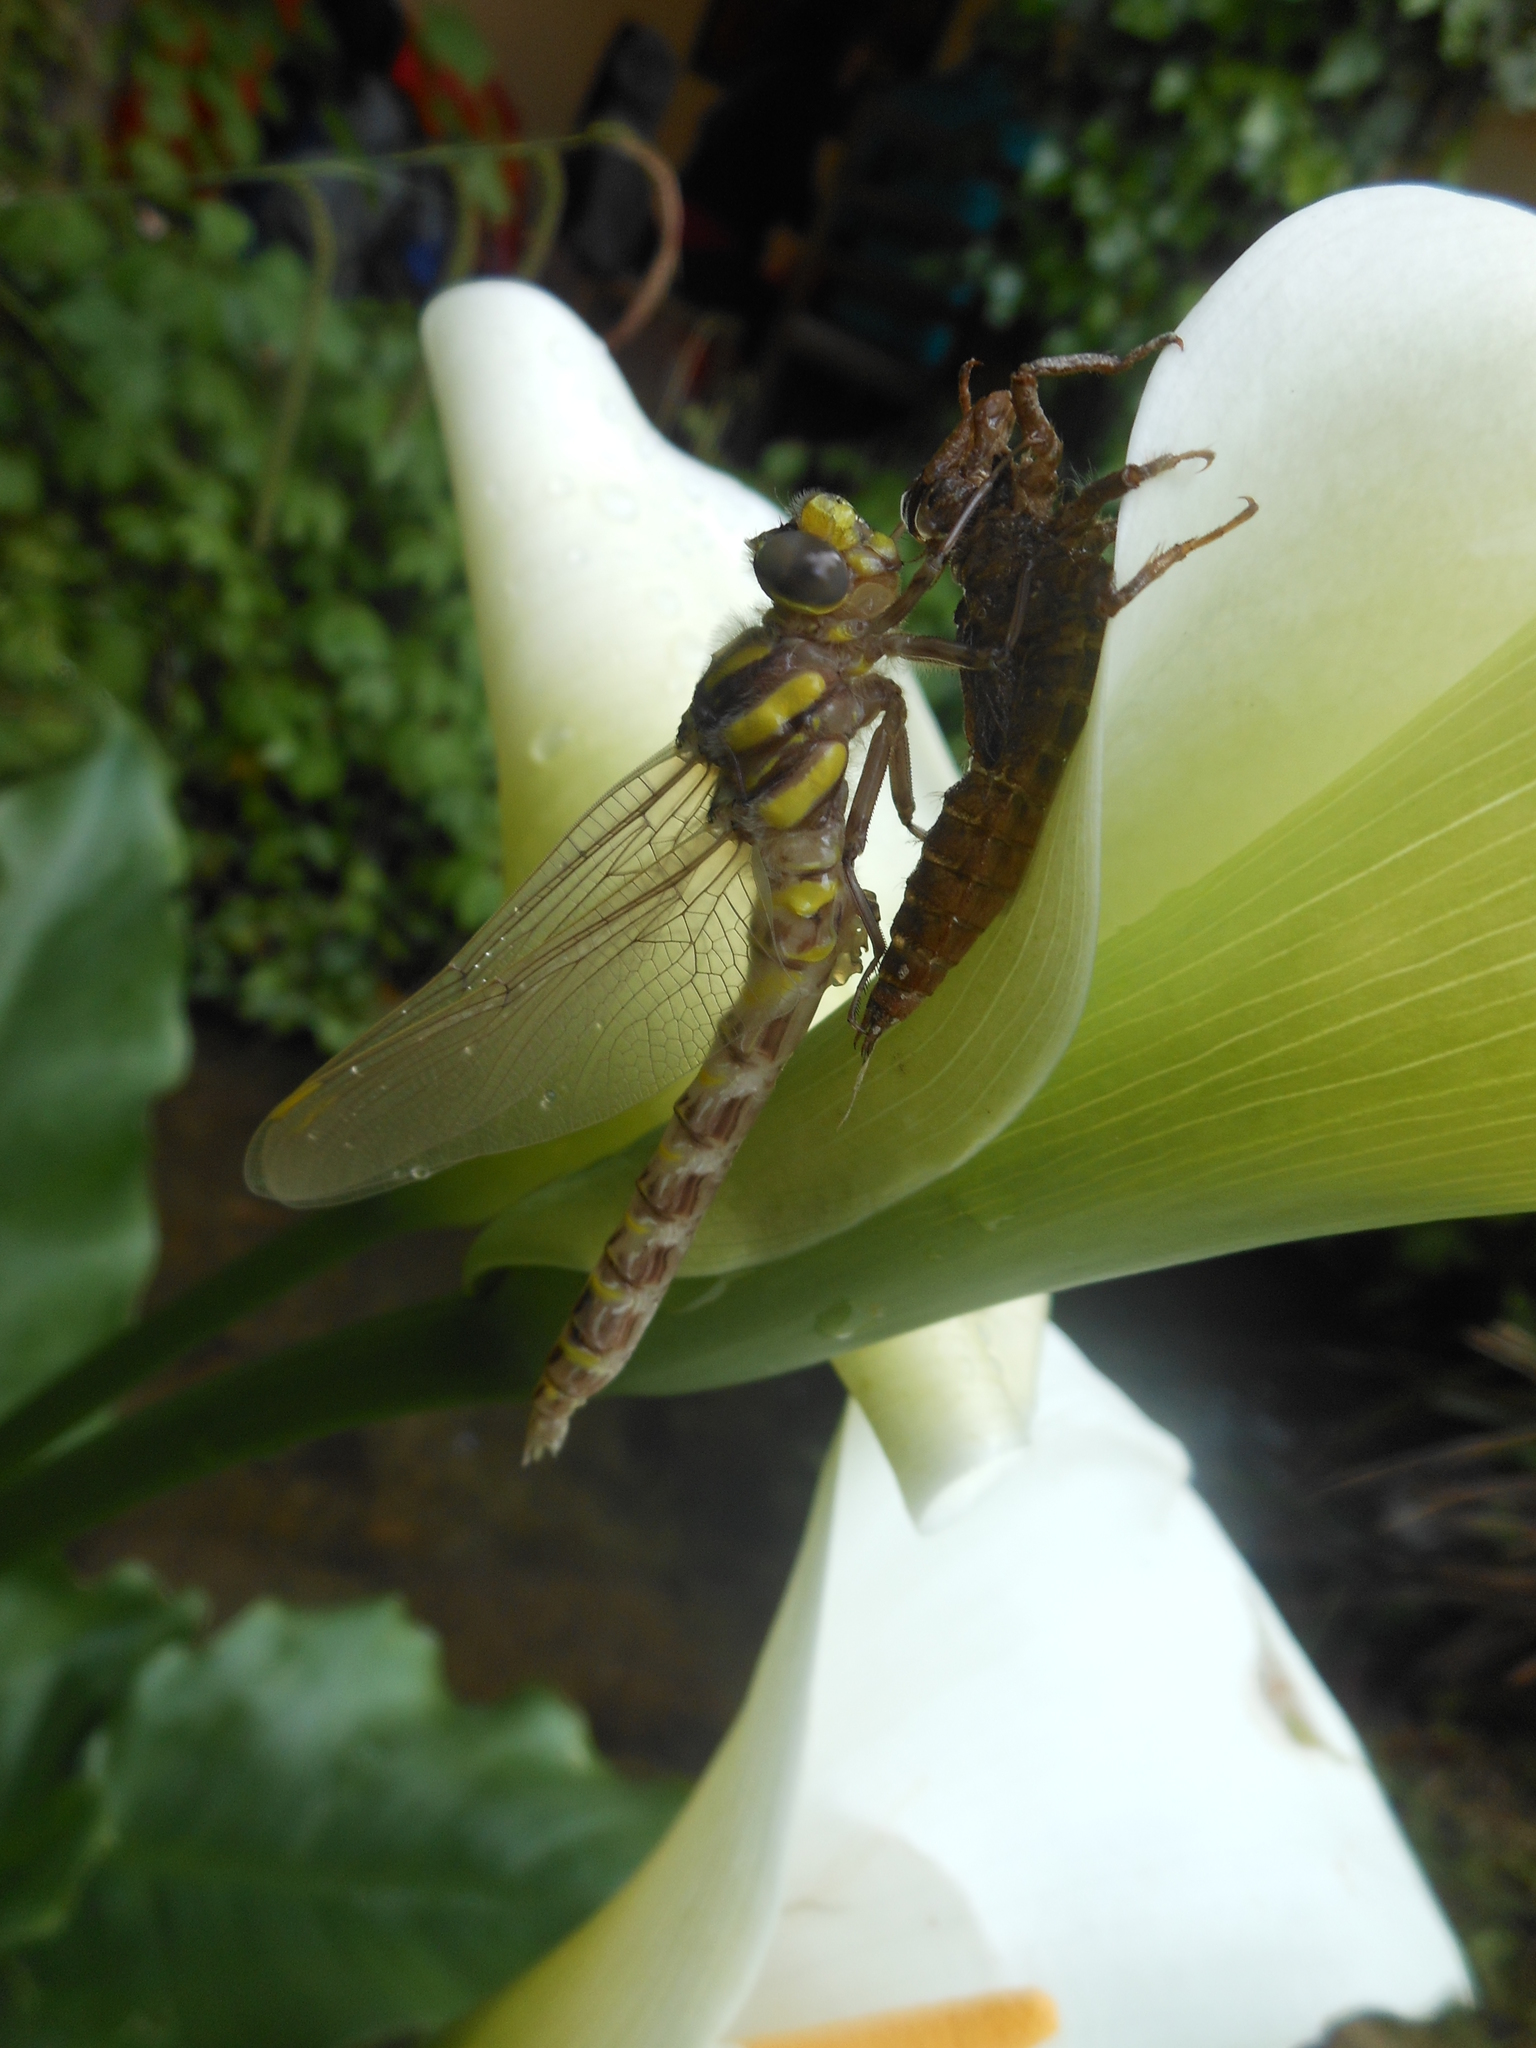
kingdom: Animalia
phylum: Arthropoda
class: Insecta
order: Odonata
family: Cordulegastridae
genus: Cordulegaster
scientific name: Cordulegaster boltonii
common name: Golden-ringed dragonfly
